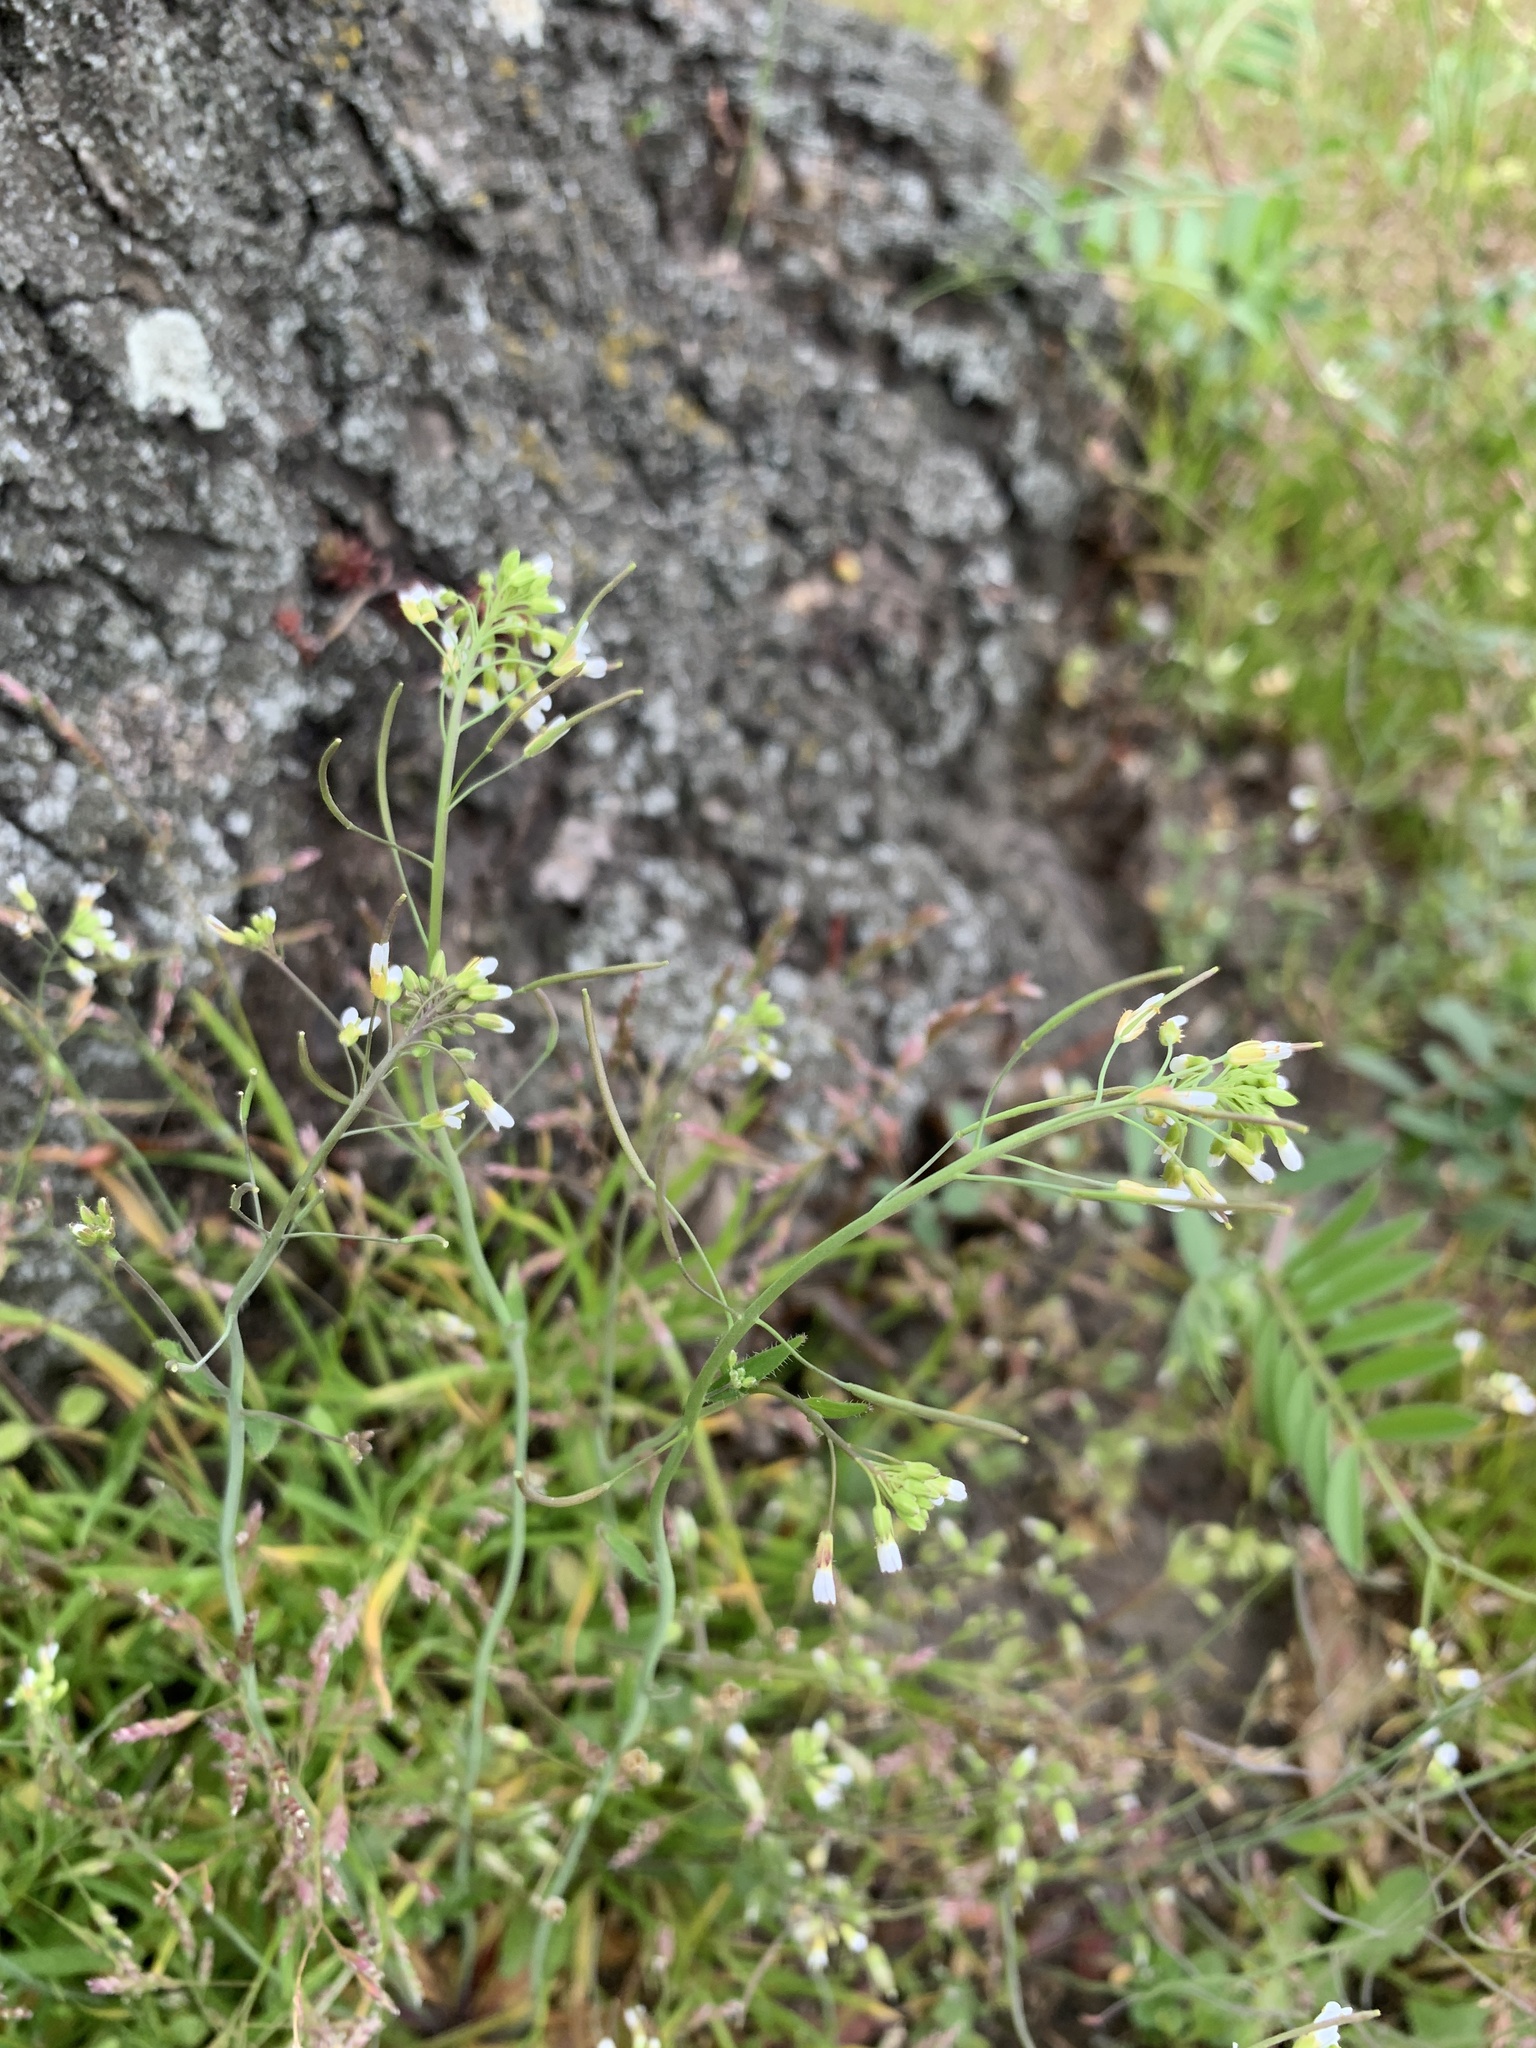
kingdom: Plantae
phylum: Tracheophyta
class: Magnoliopsida
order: Brassicales
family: Brassicaceae
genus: Arabidopsis
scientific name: Arabidopsis thaliana
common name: Thale cress
